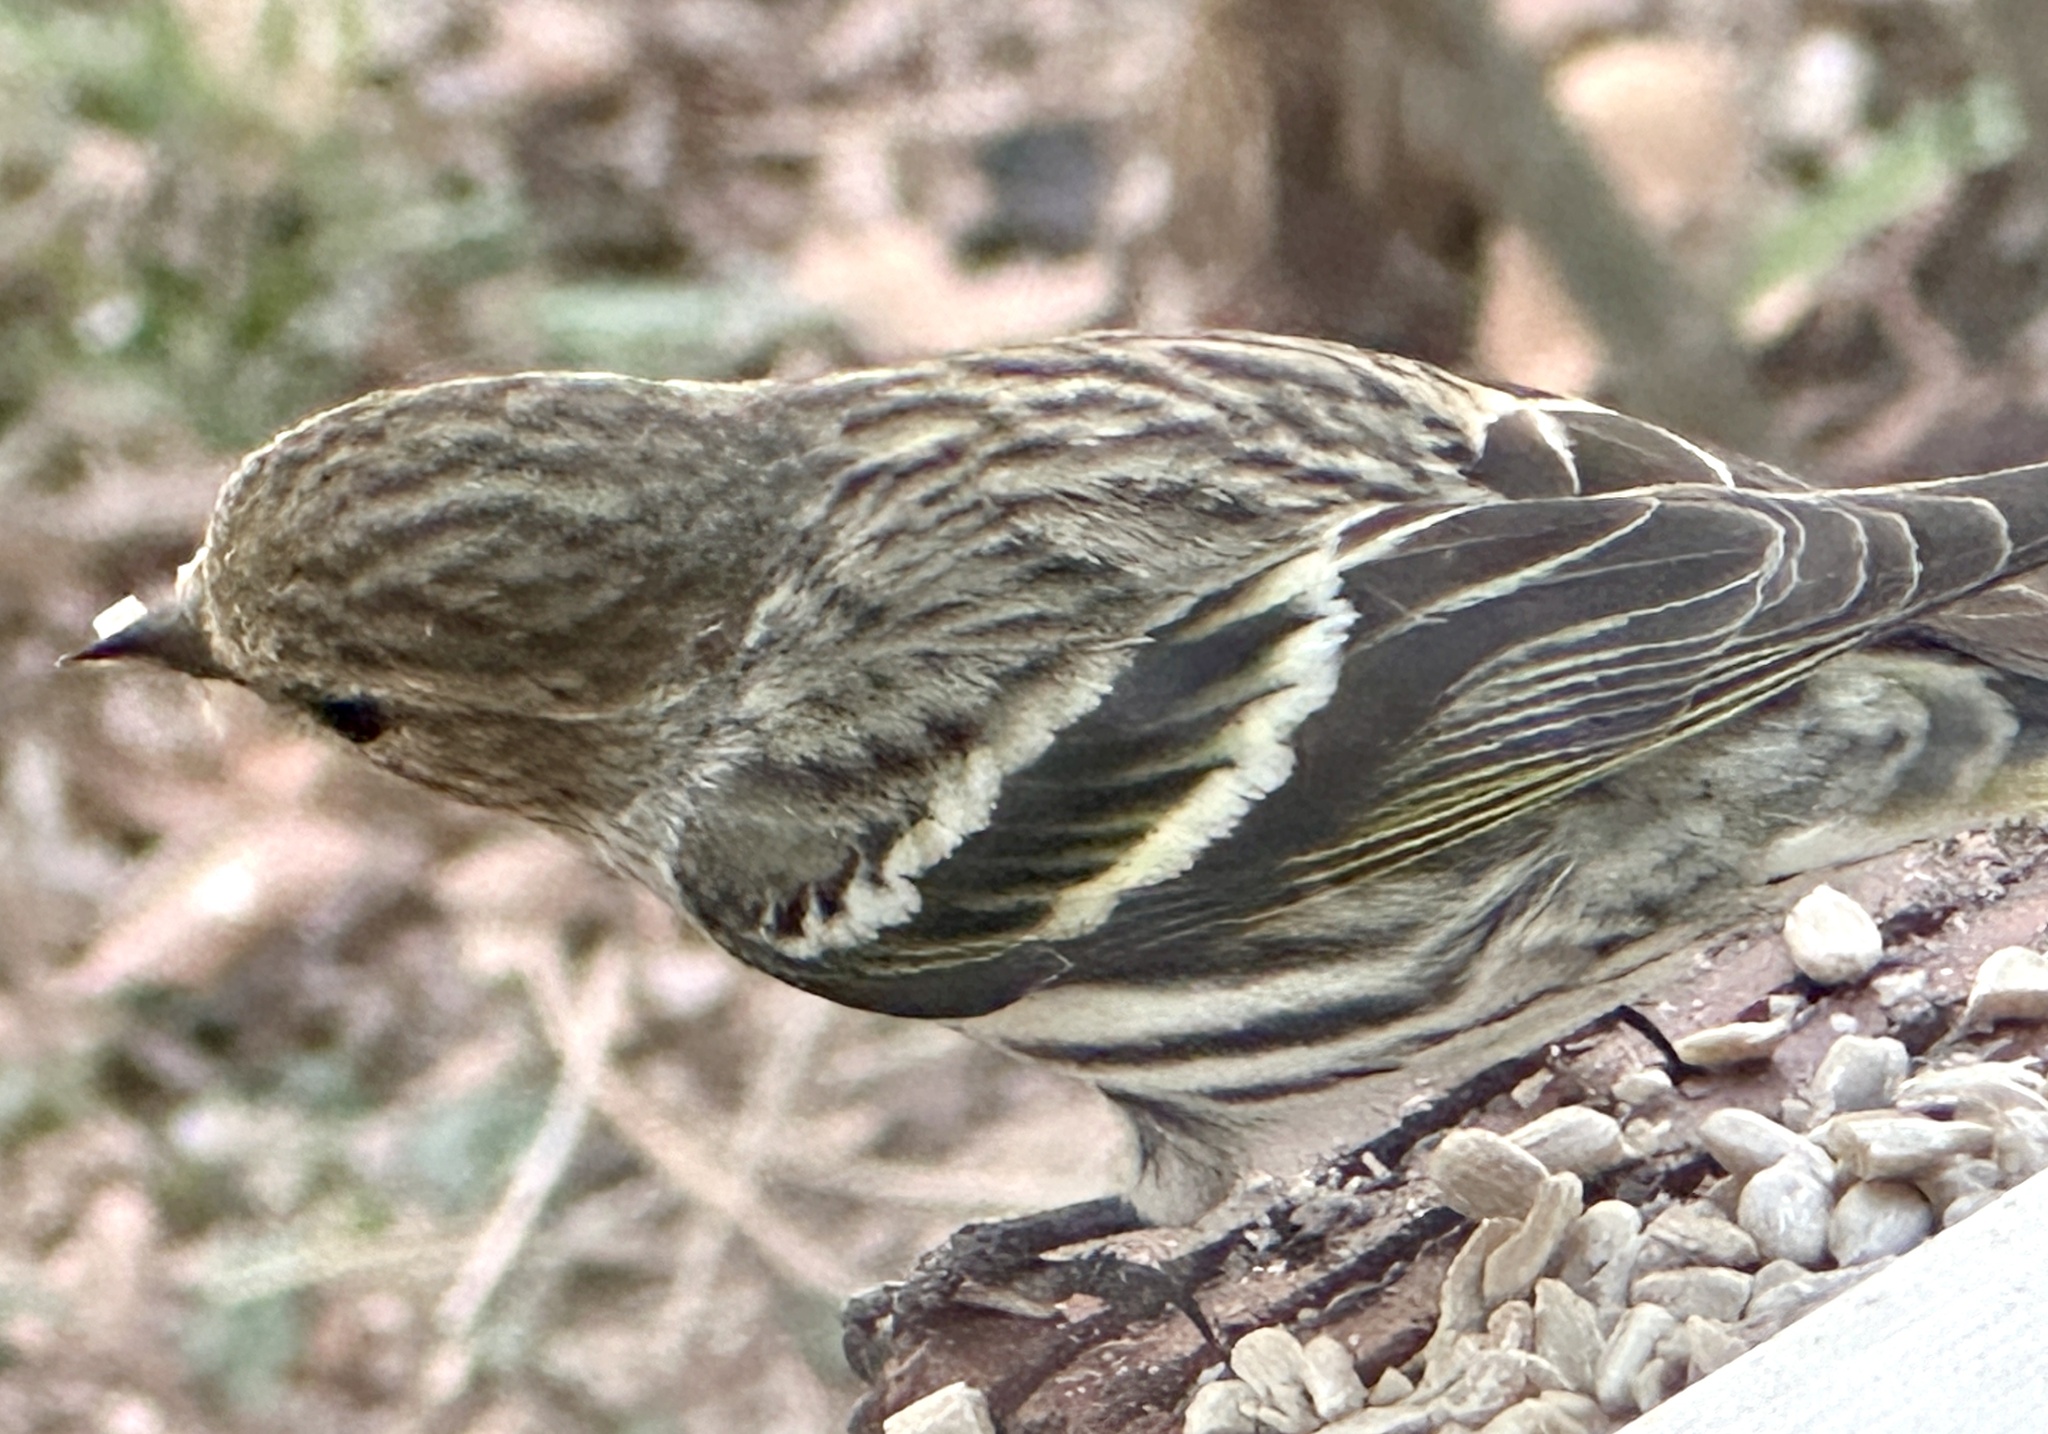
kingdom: Animalia
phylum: Chordata
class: Aves
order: Passeriformes
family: Fringillidae
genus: Spinus
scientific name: Spinus pinus
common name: Pine siskin
